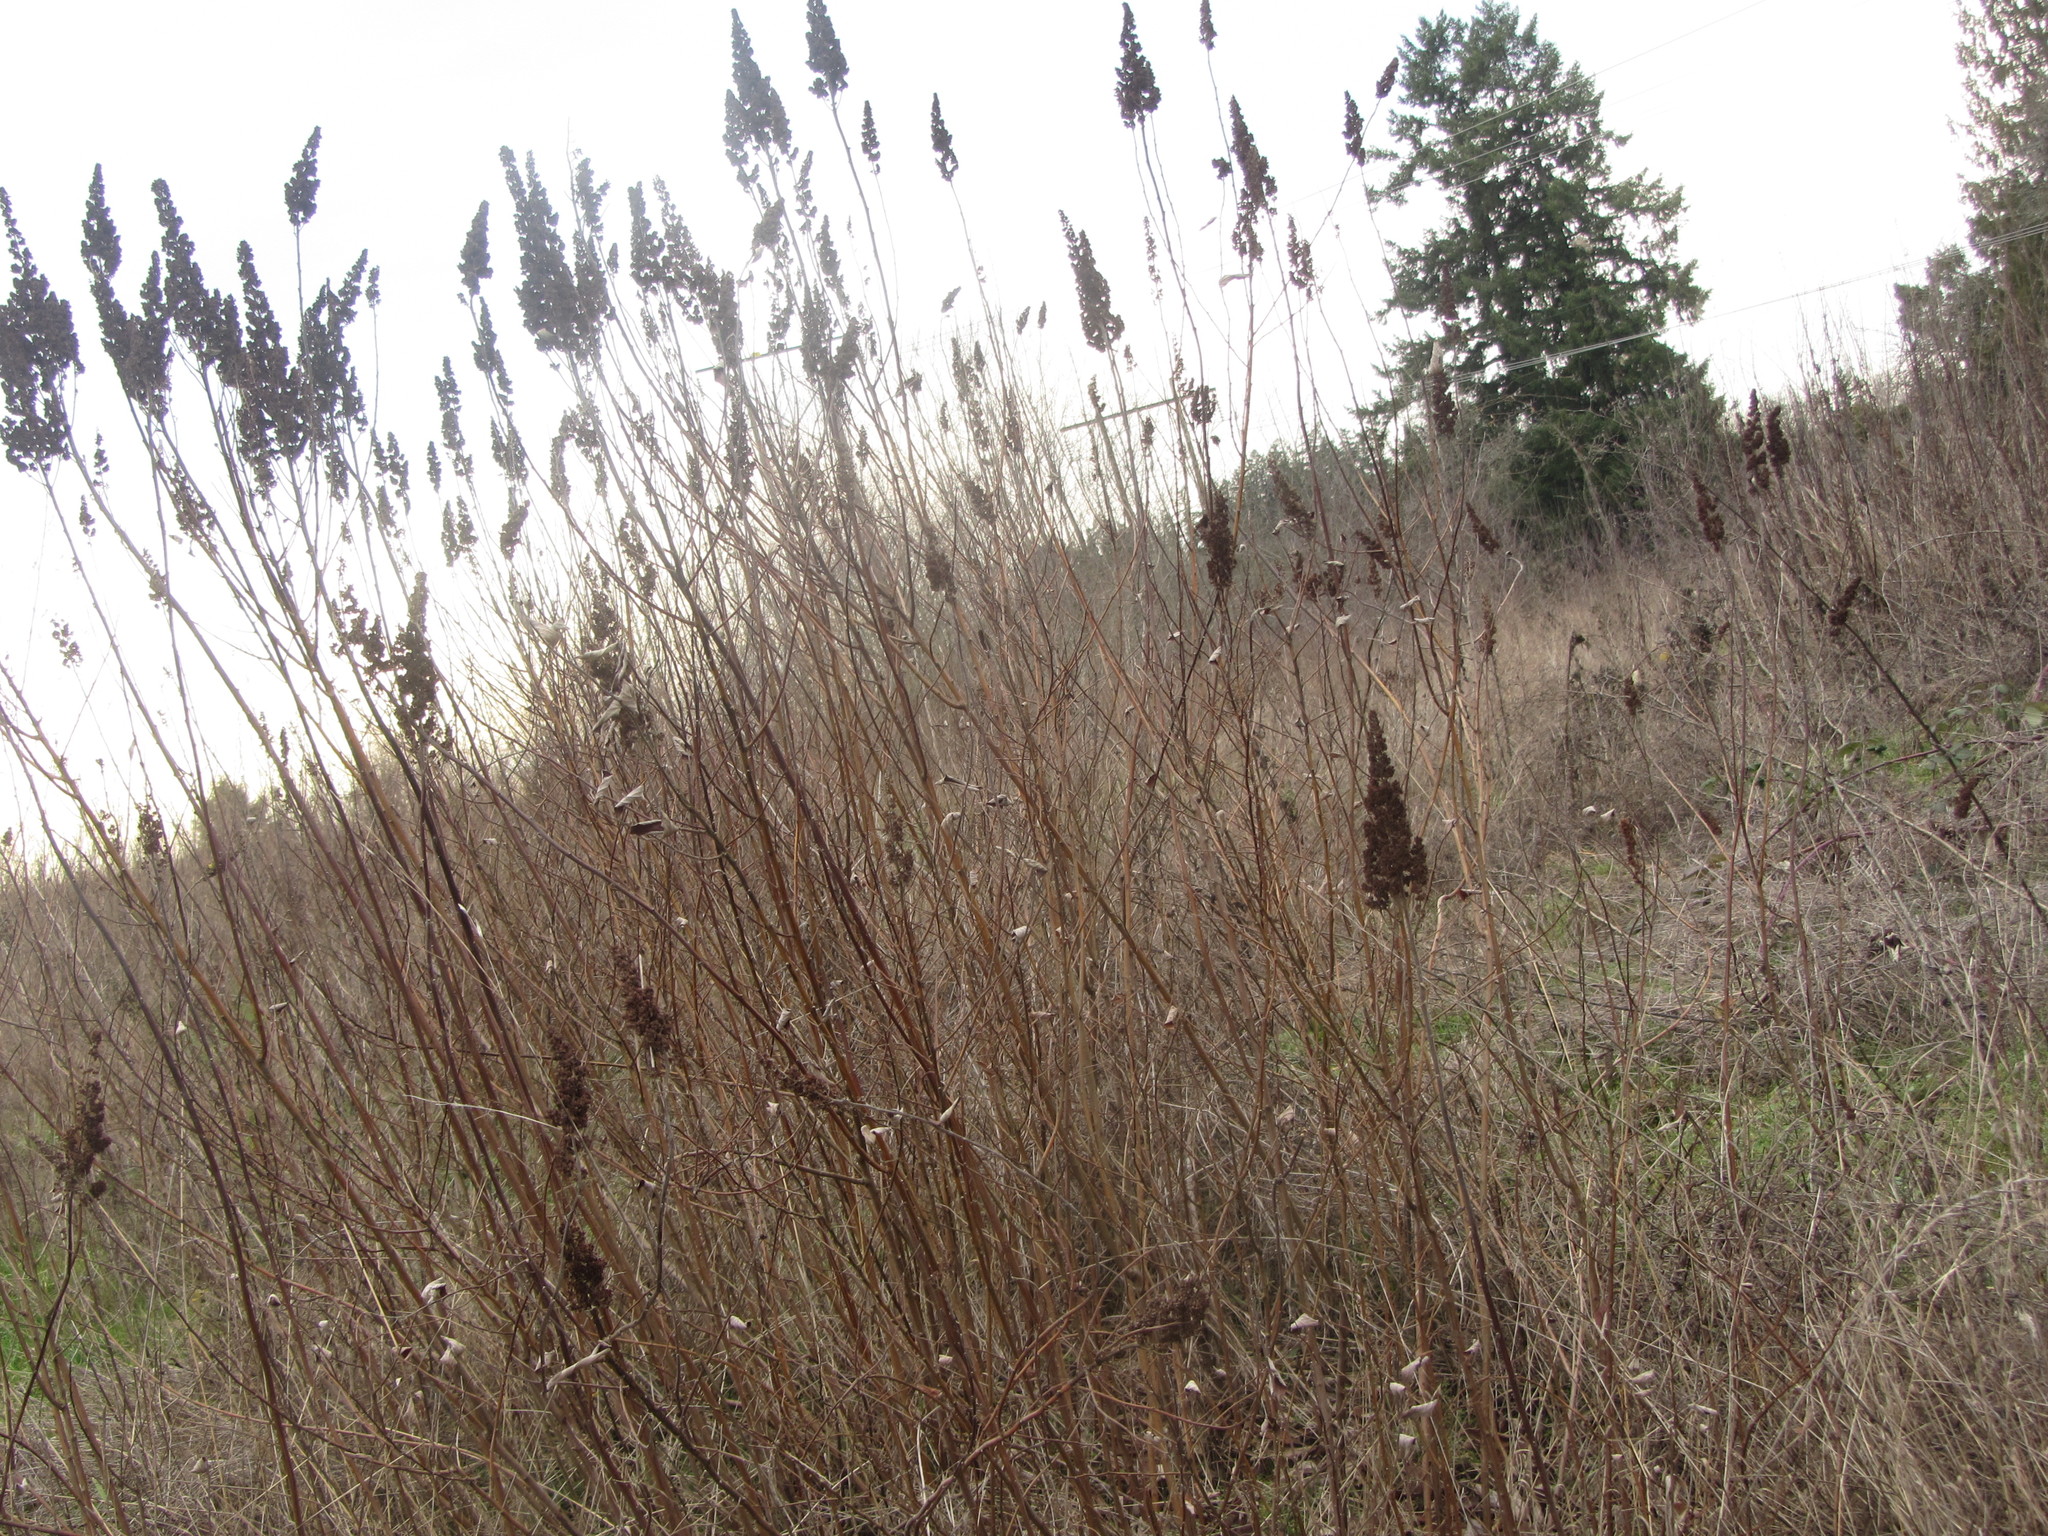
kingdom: Plantae
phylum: Tracheophyta
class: Magnoliopsida
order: Rosales
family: Rosaceae
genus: Spiraea
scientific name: Spiraea douglasii
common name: Steeplebush
